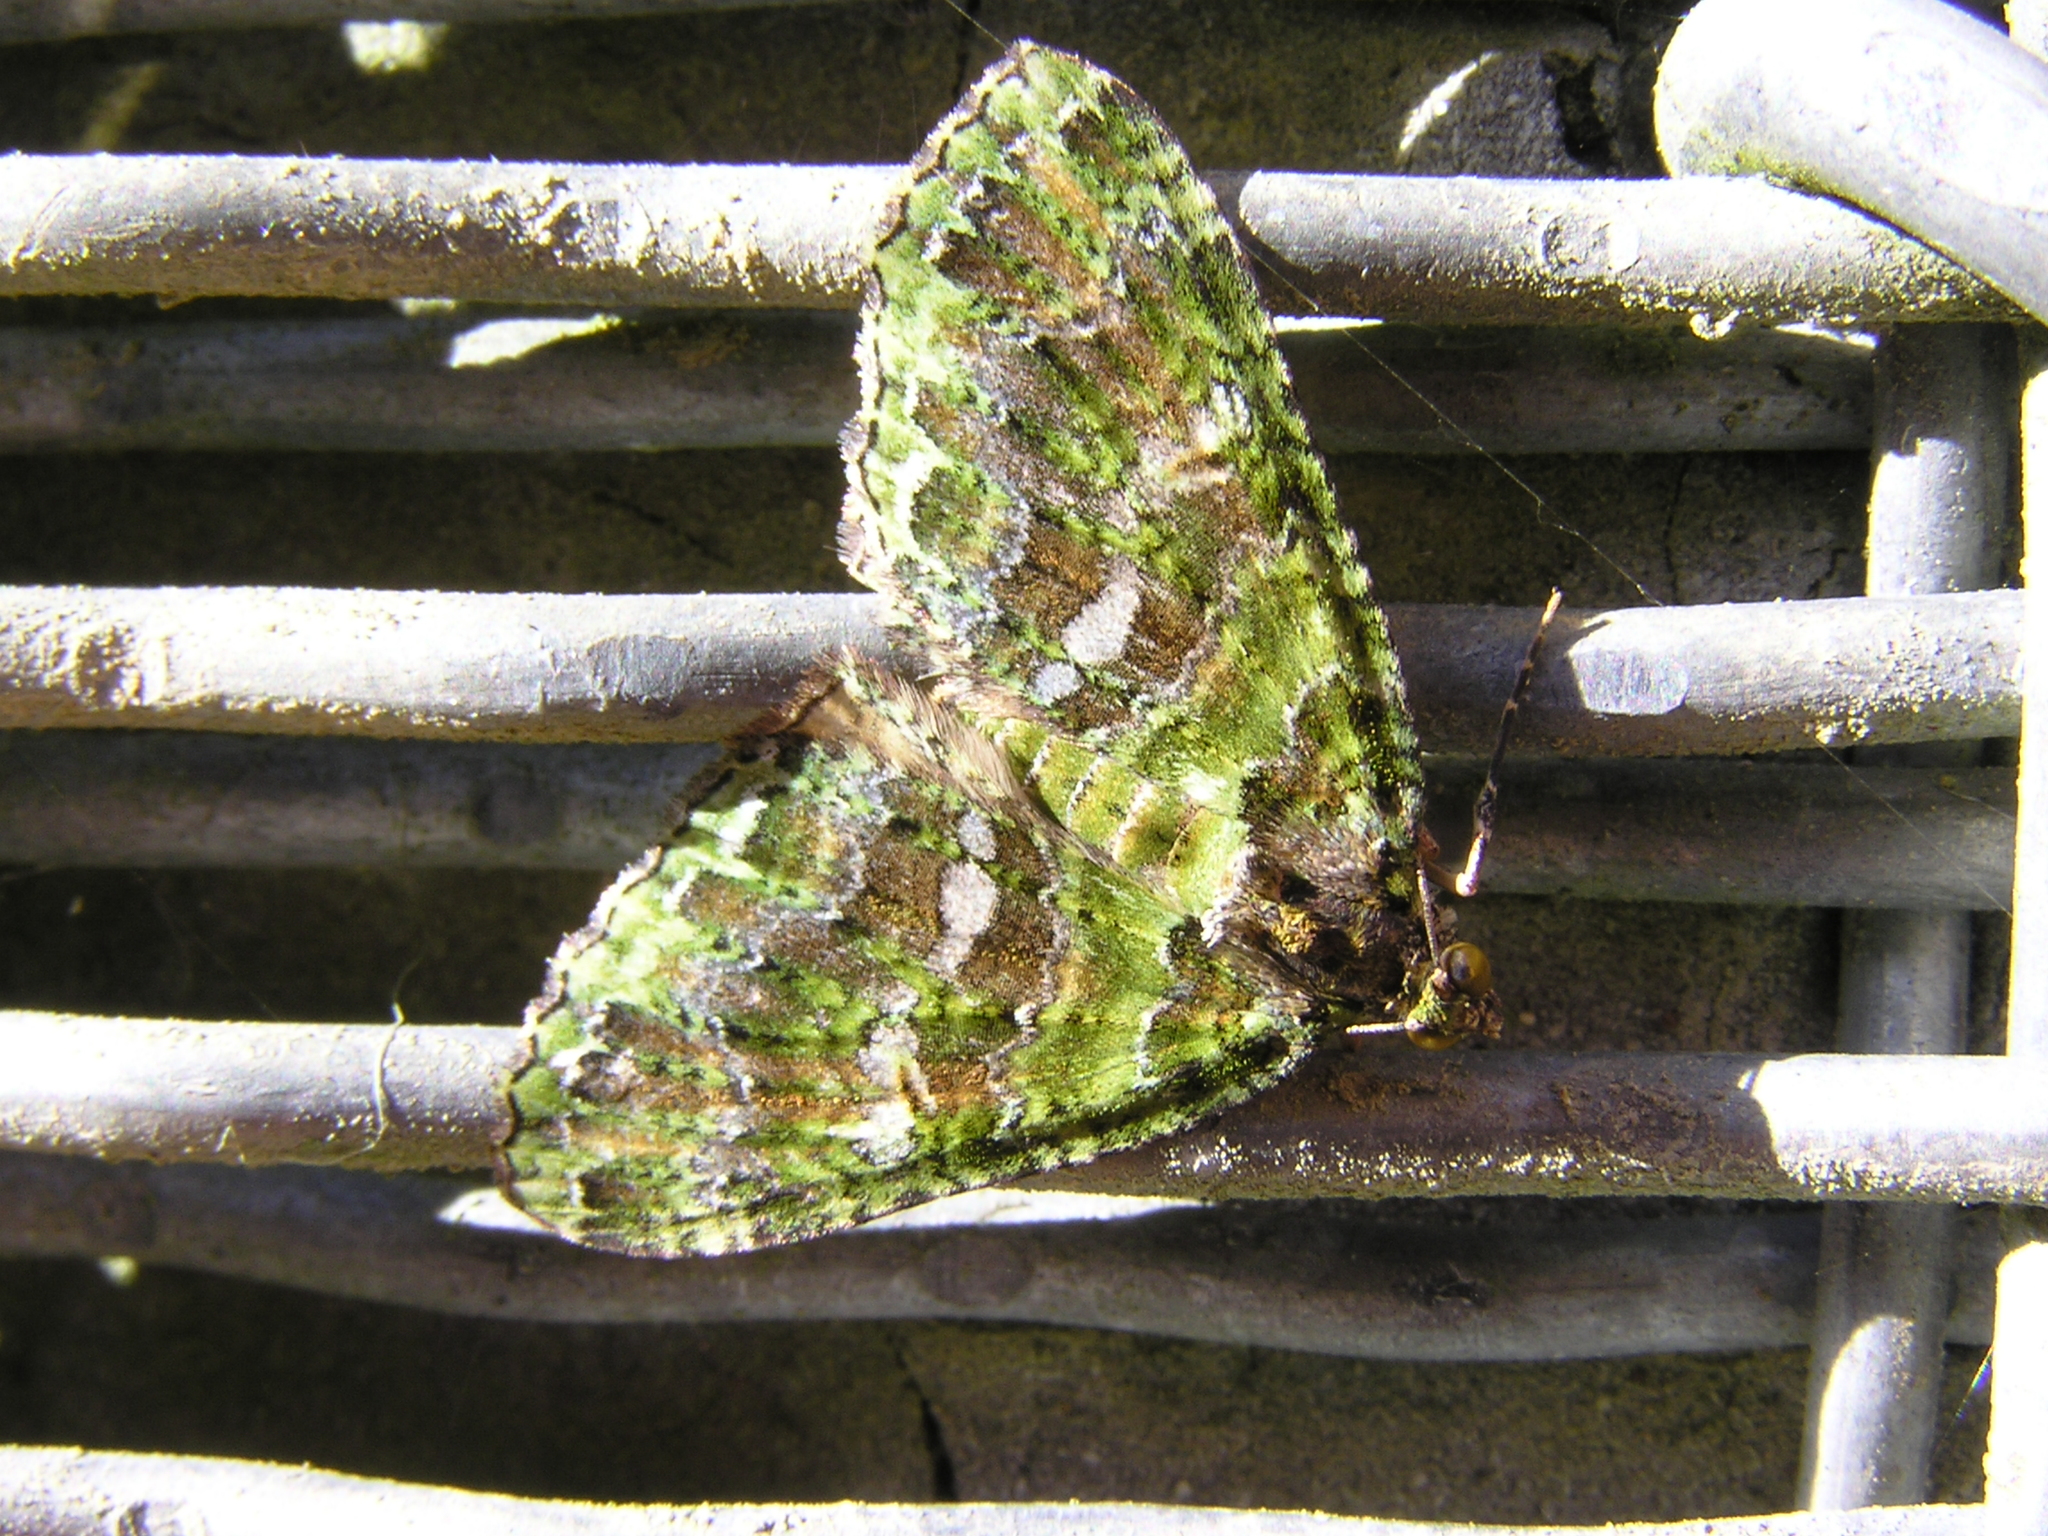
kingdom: Animalia
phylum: Arthropoda
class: Insecta
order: Lepidoptera
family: Geometridae
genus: Austrocidaria
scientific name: Austrocidaria similata
